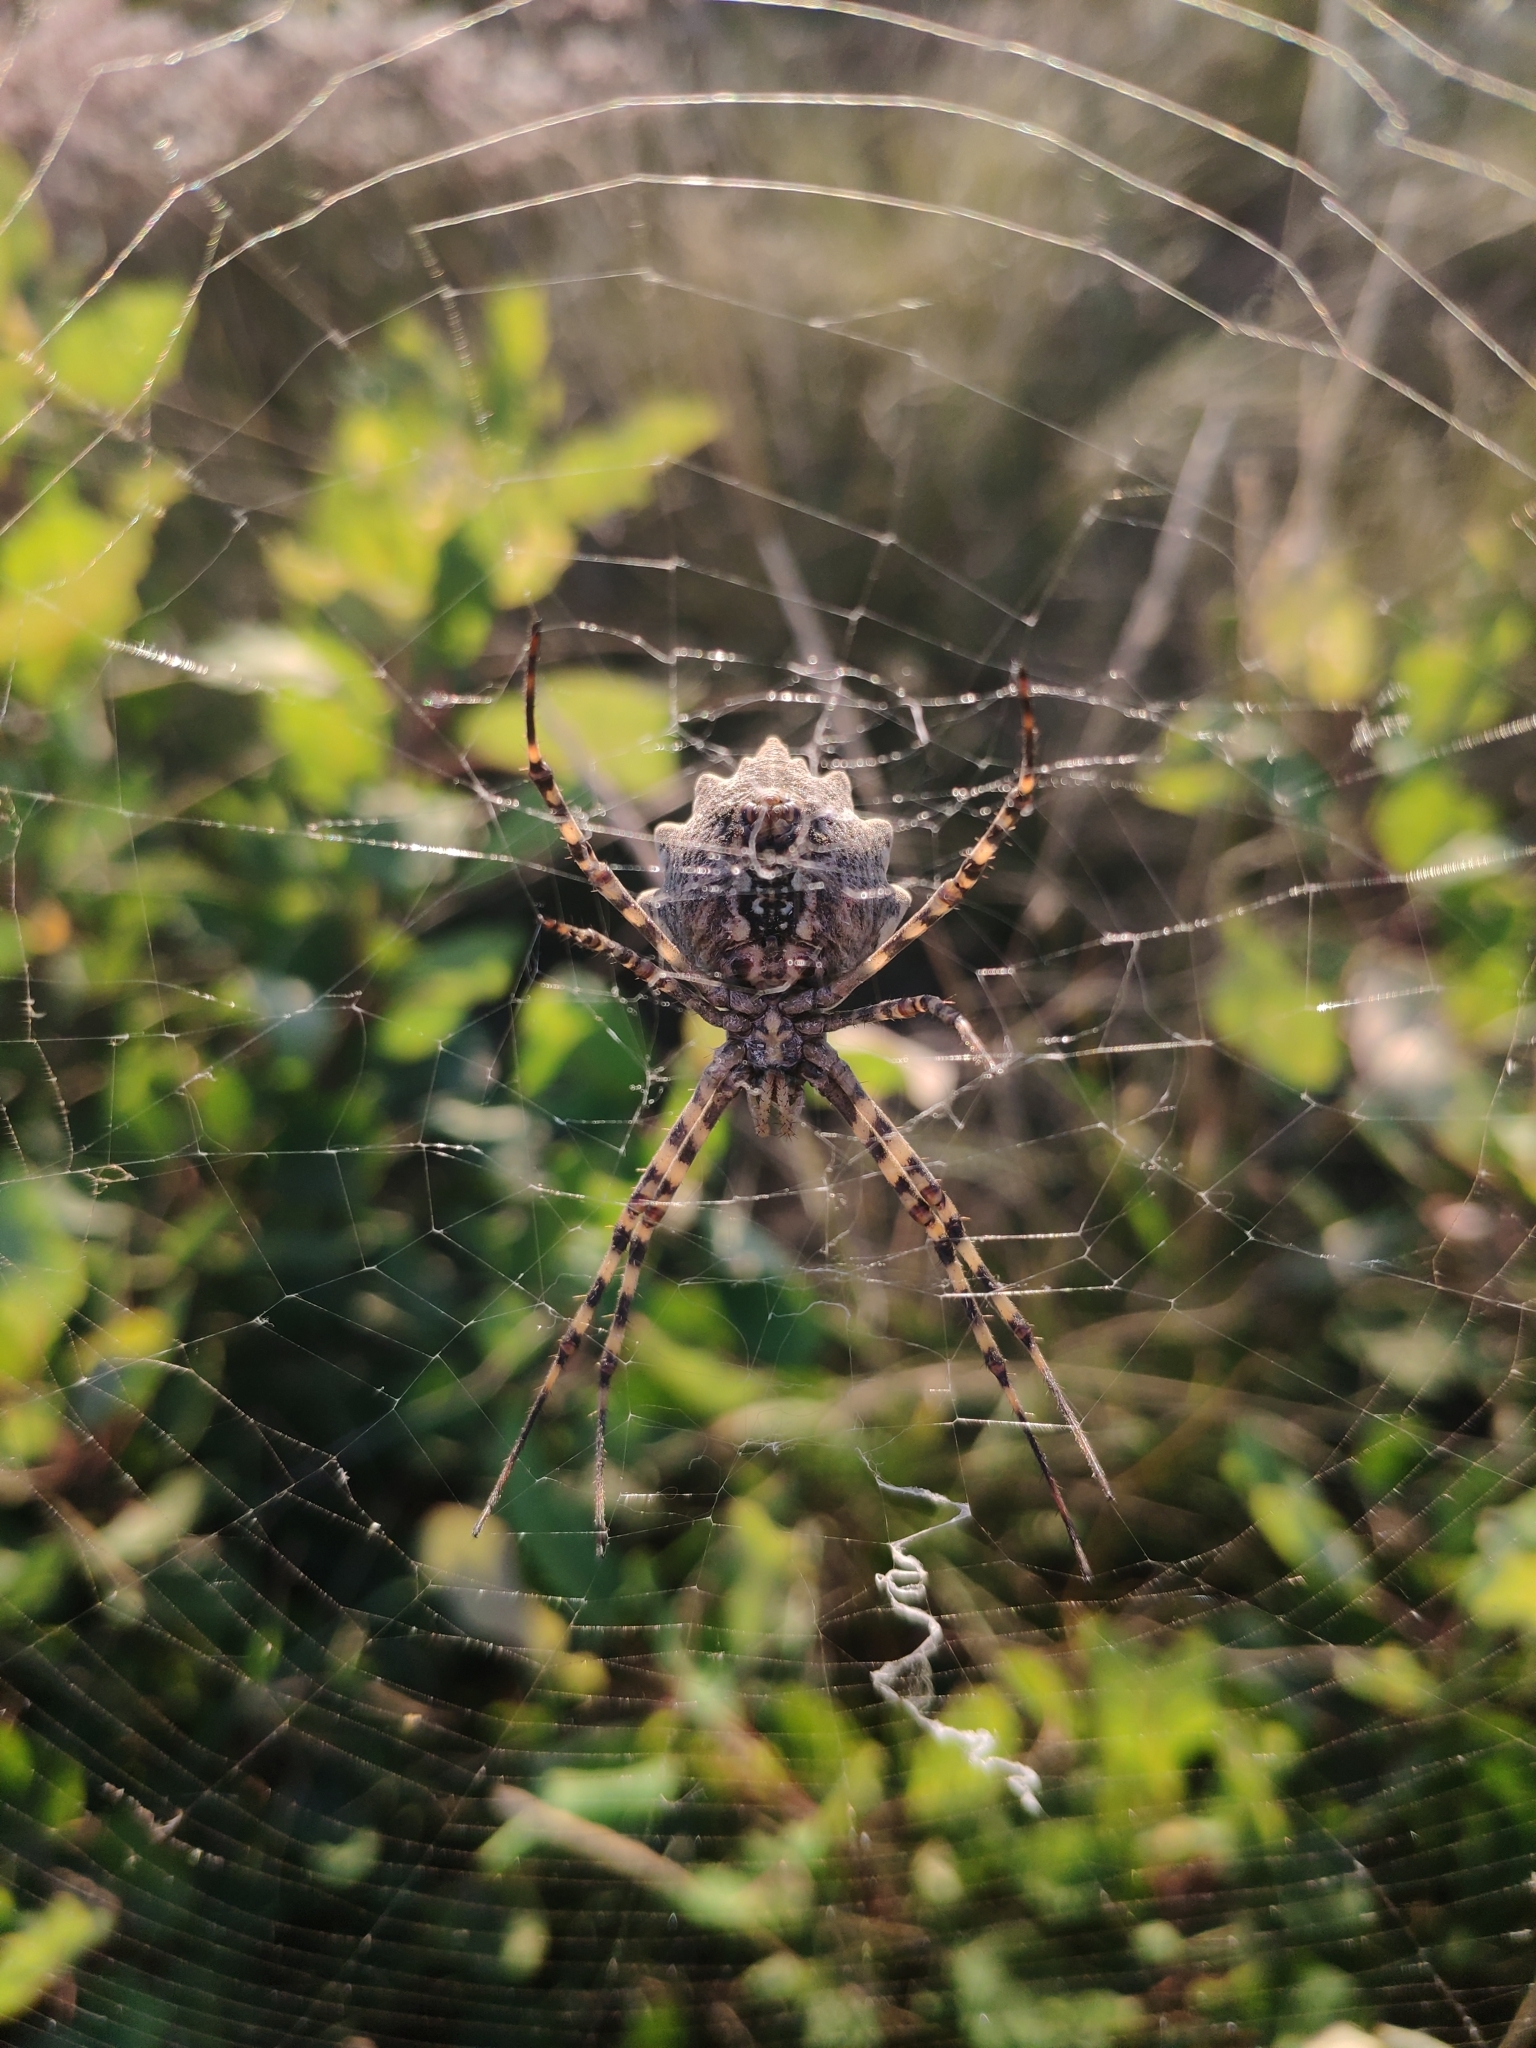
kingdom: Animalia
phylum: Arthropoda
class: Arachnida
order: Araneae
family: Araneidae
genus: Argiope
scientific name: Argiope lobata
